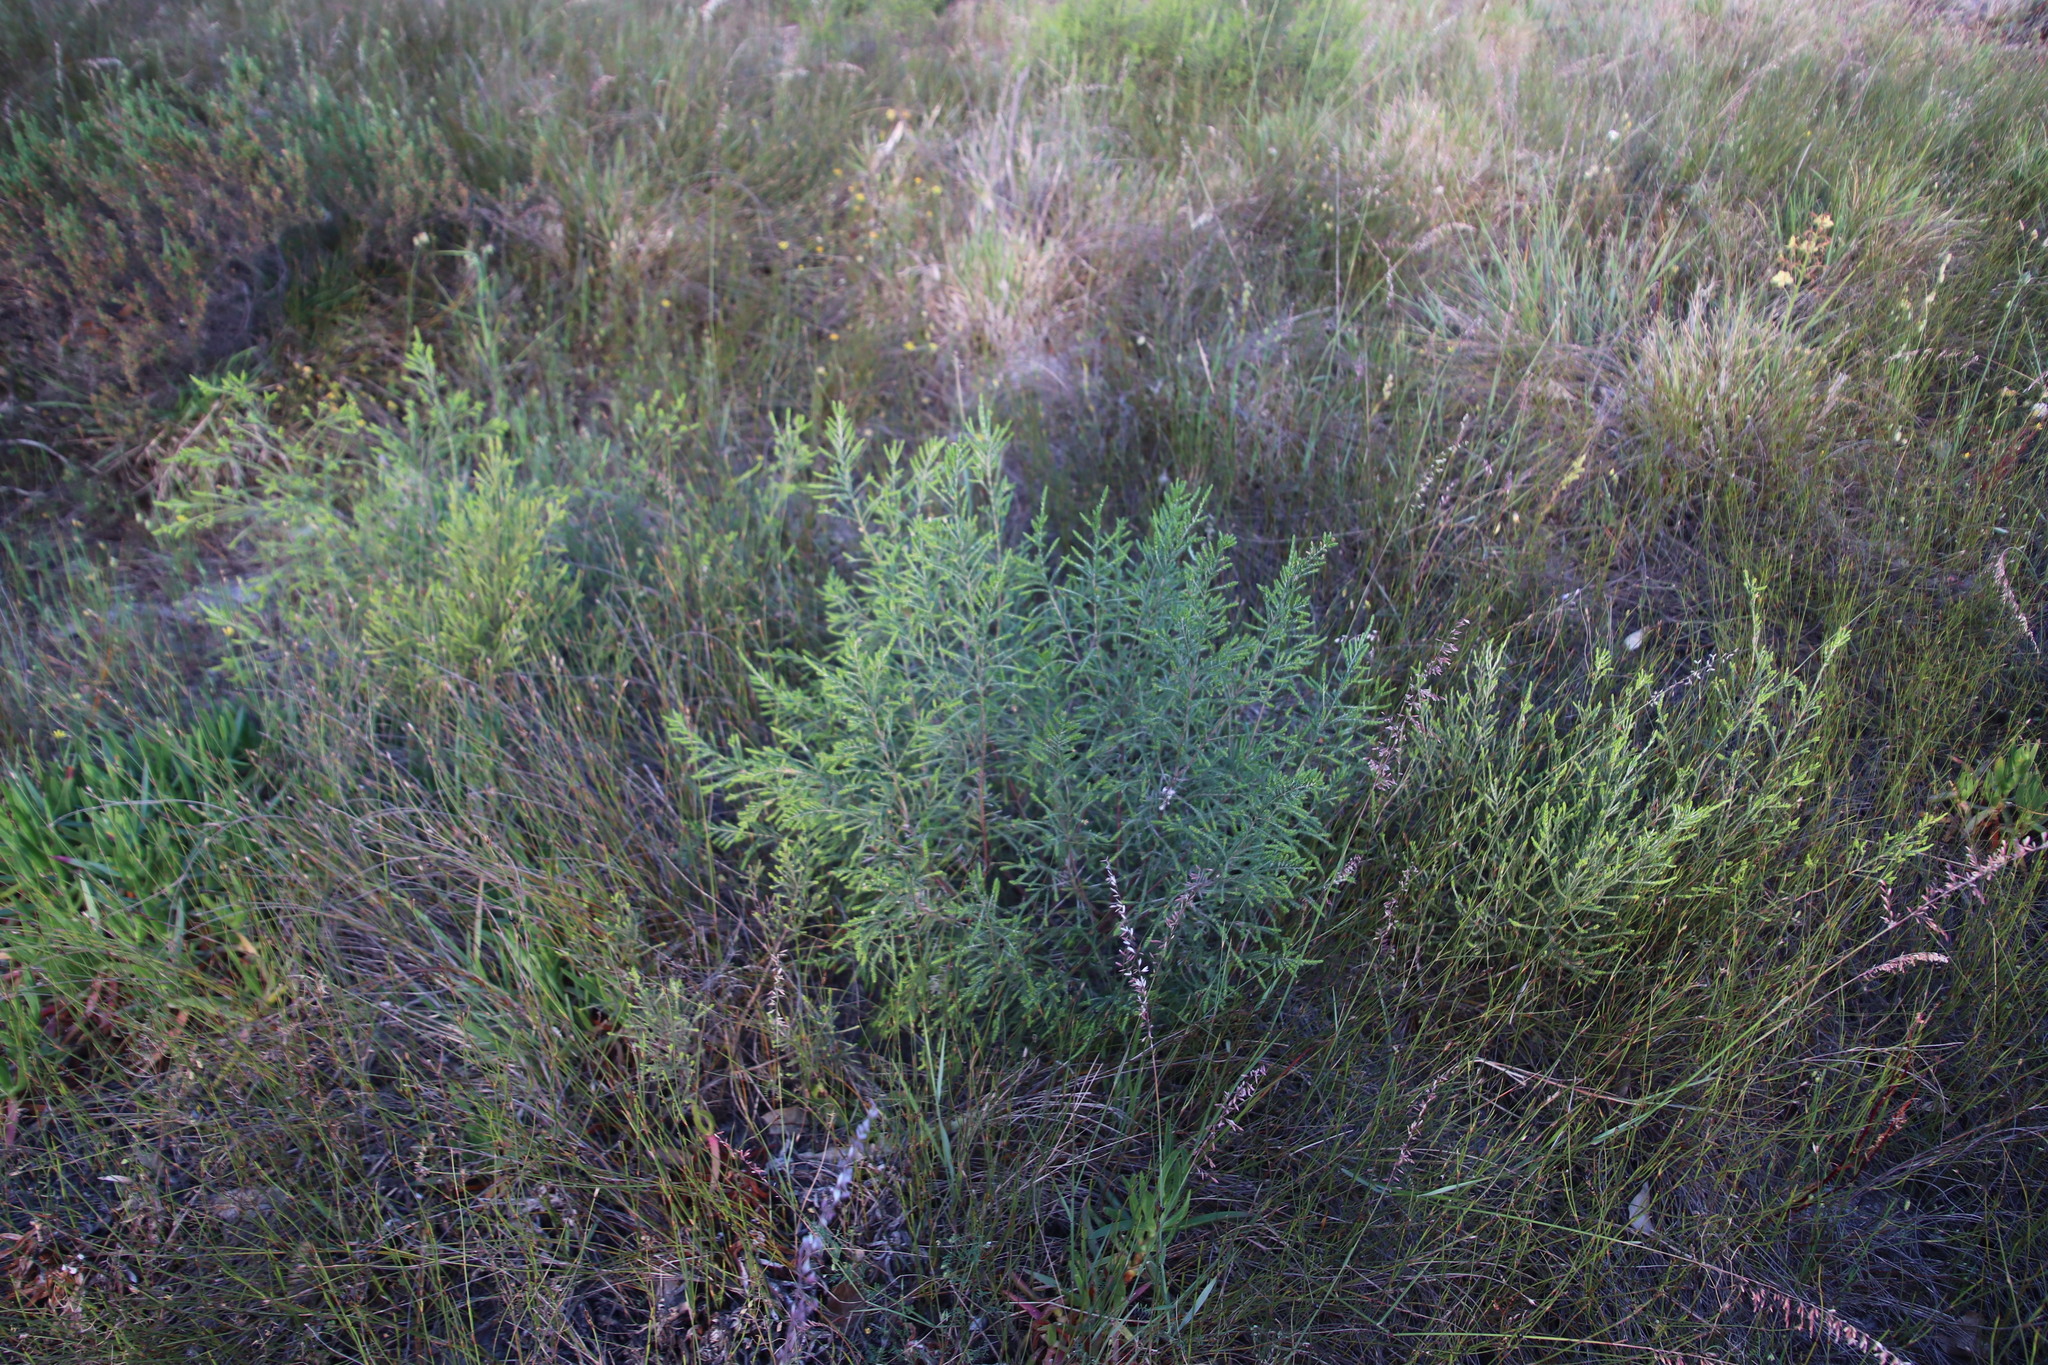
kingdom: Plantae
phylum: Tracheophyta
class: Magnoliopsida
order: Malvales
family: Thymelaeaceae
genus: Passerina
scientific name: Passerina corymbosa
